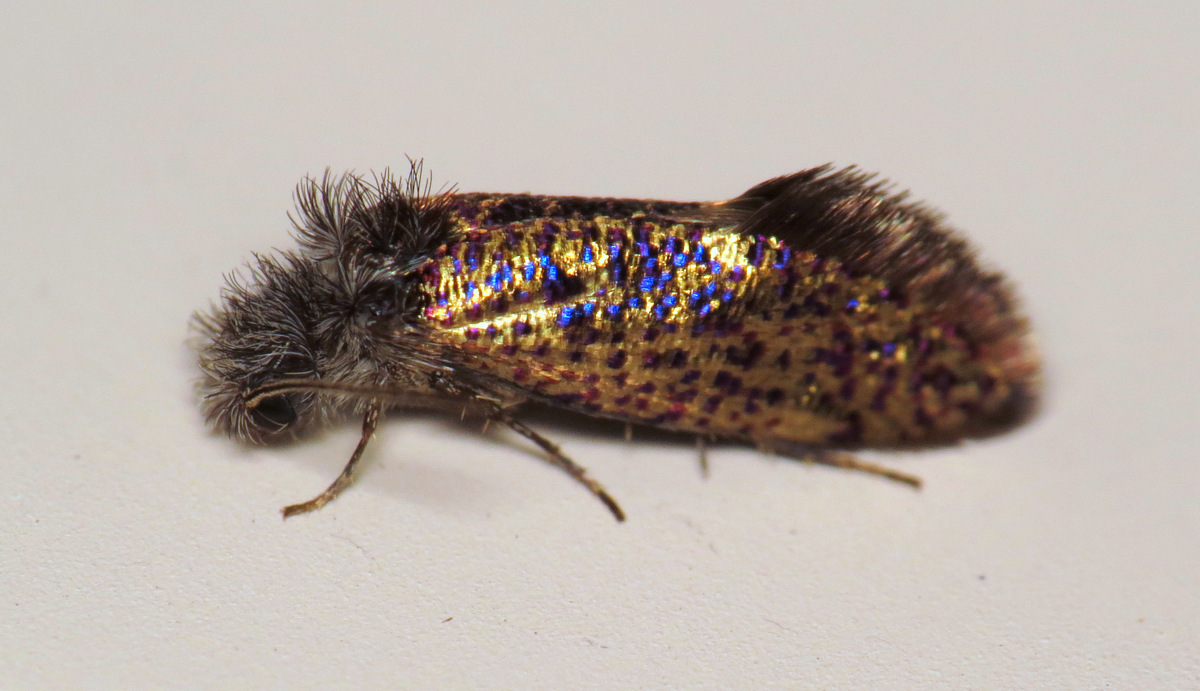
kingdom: Animalia
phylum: Arthropoda
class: Insecta
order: Lepidoptera
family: Eriocraniidae
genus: Dyseriocrania
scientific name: Dyseriocrania griseocapitella
